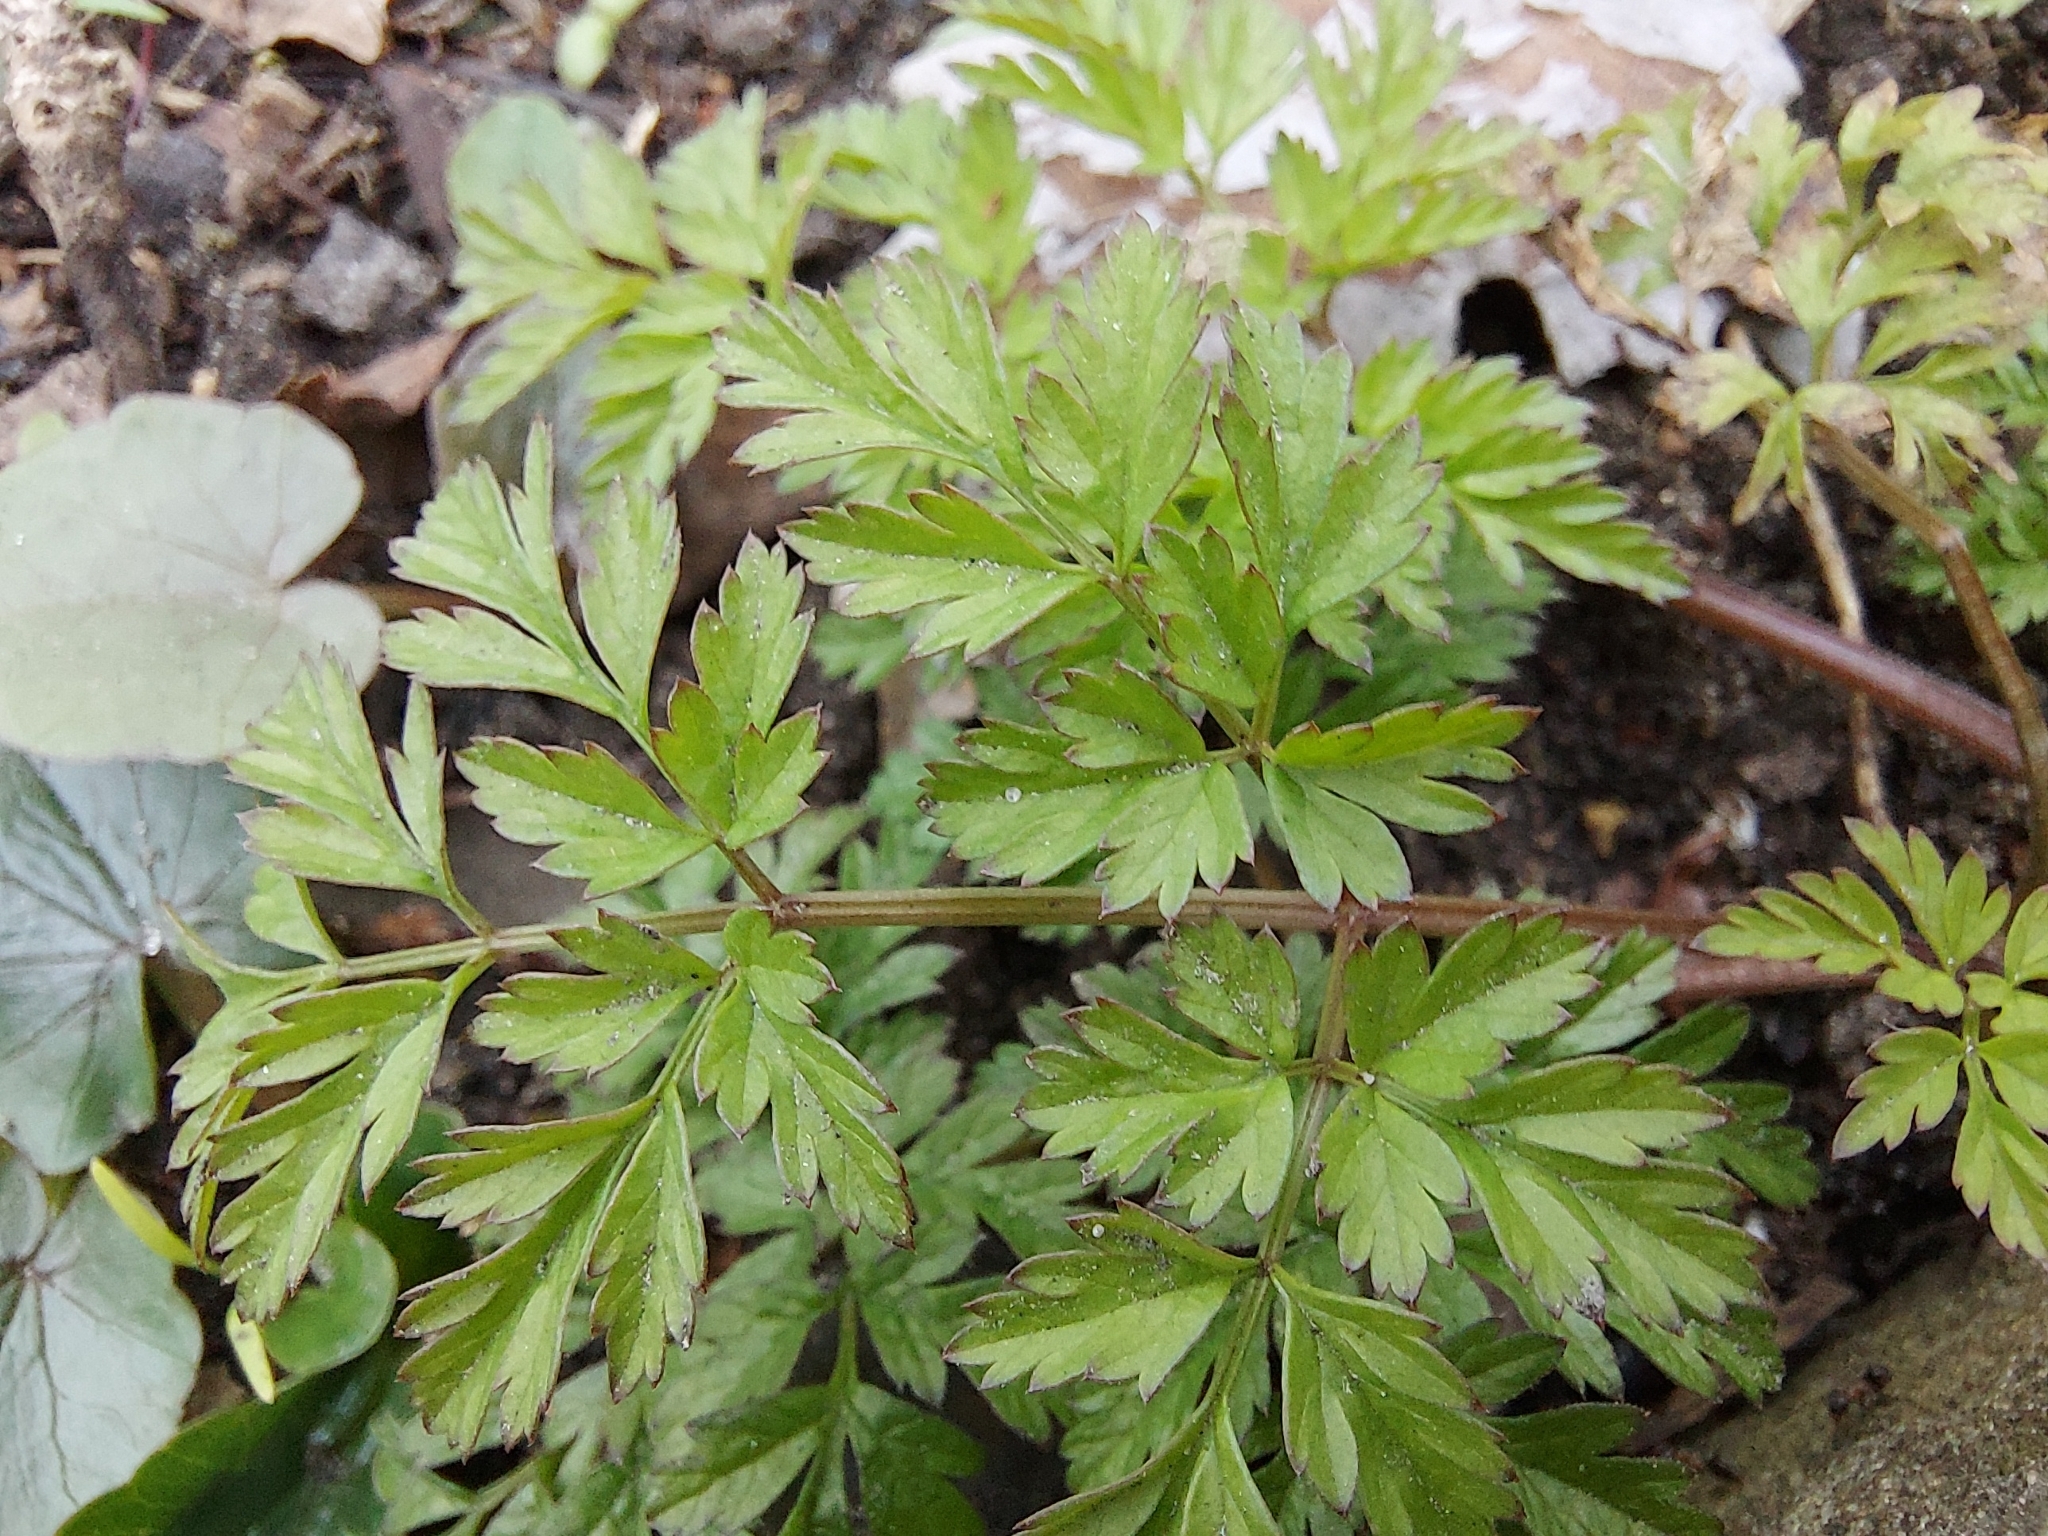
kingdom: Plantae
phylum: Tracheophyta
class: Magnoliopsida
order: Apiales
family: Apiaceae
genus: Anthriscus
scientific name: Anthriscus sylvestris
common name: Cow parsley
